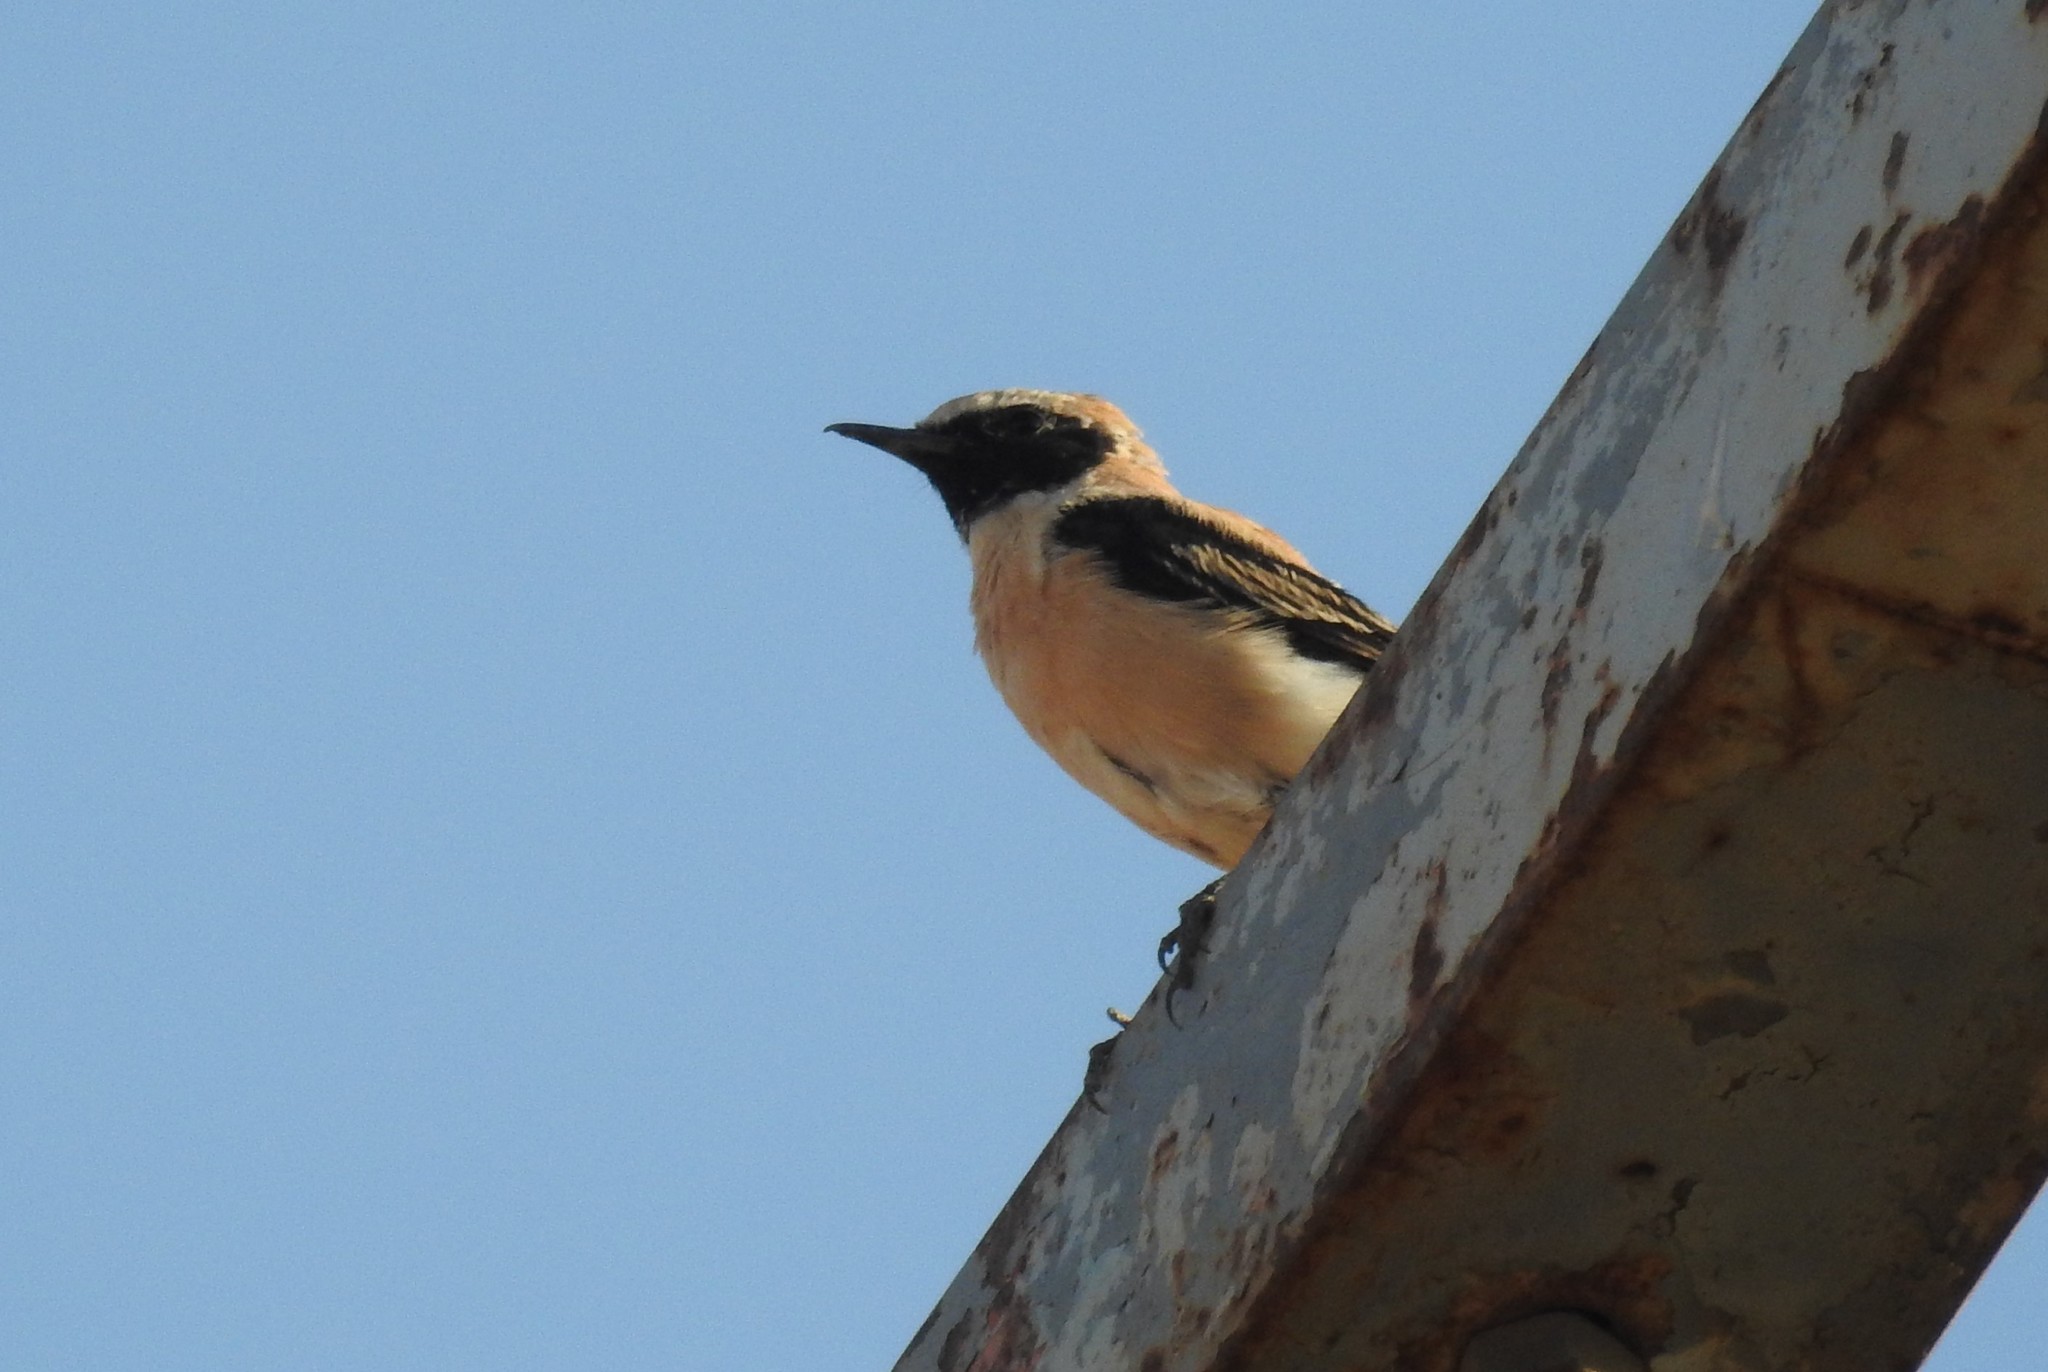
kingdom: Animalia
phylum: Chordata
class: Aves
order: Passeriformes
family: Muscicapidae
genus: Oenanthe
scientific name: Oenanthe hispanica
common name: Black-eared wheatear
